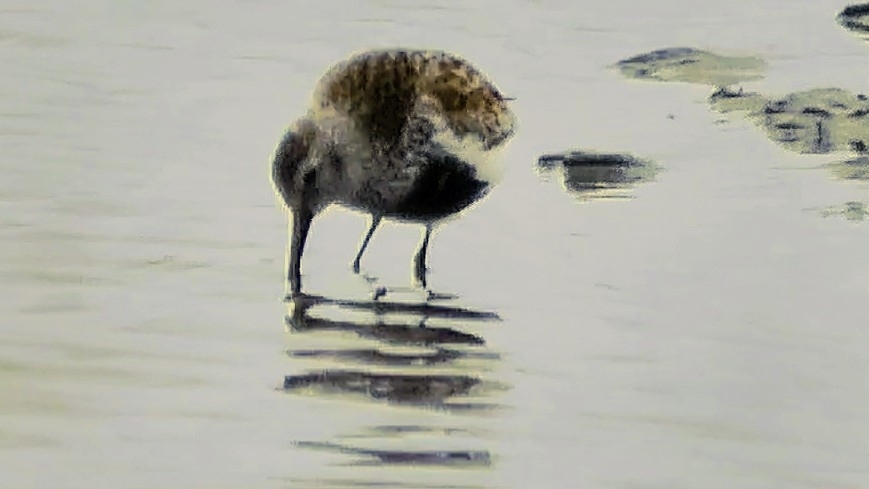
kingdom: Animalia
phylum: Chordata
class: Aves
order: Charadriiformes
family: Scolopacidae
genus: Calidris
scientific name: Calidris alpina
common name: Dunlin
